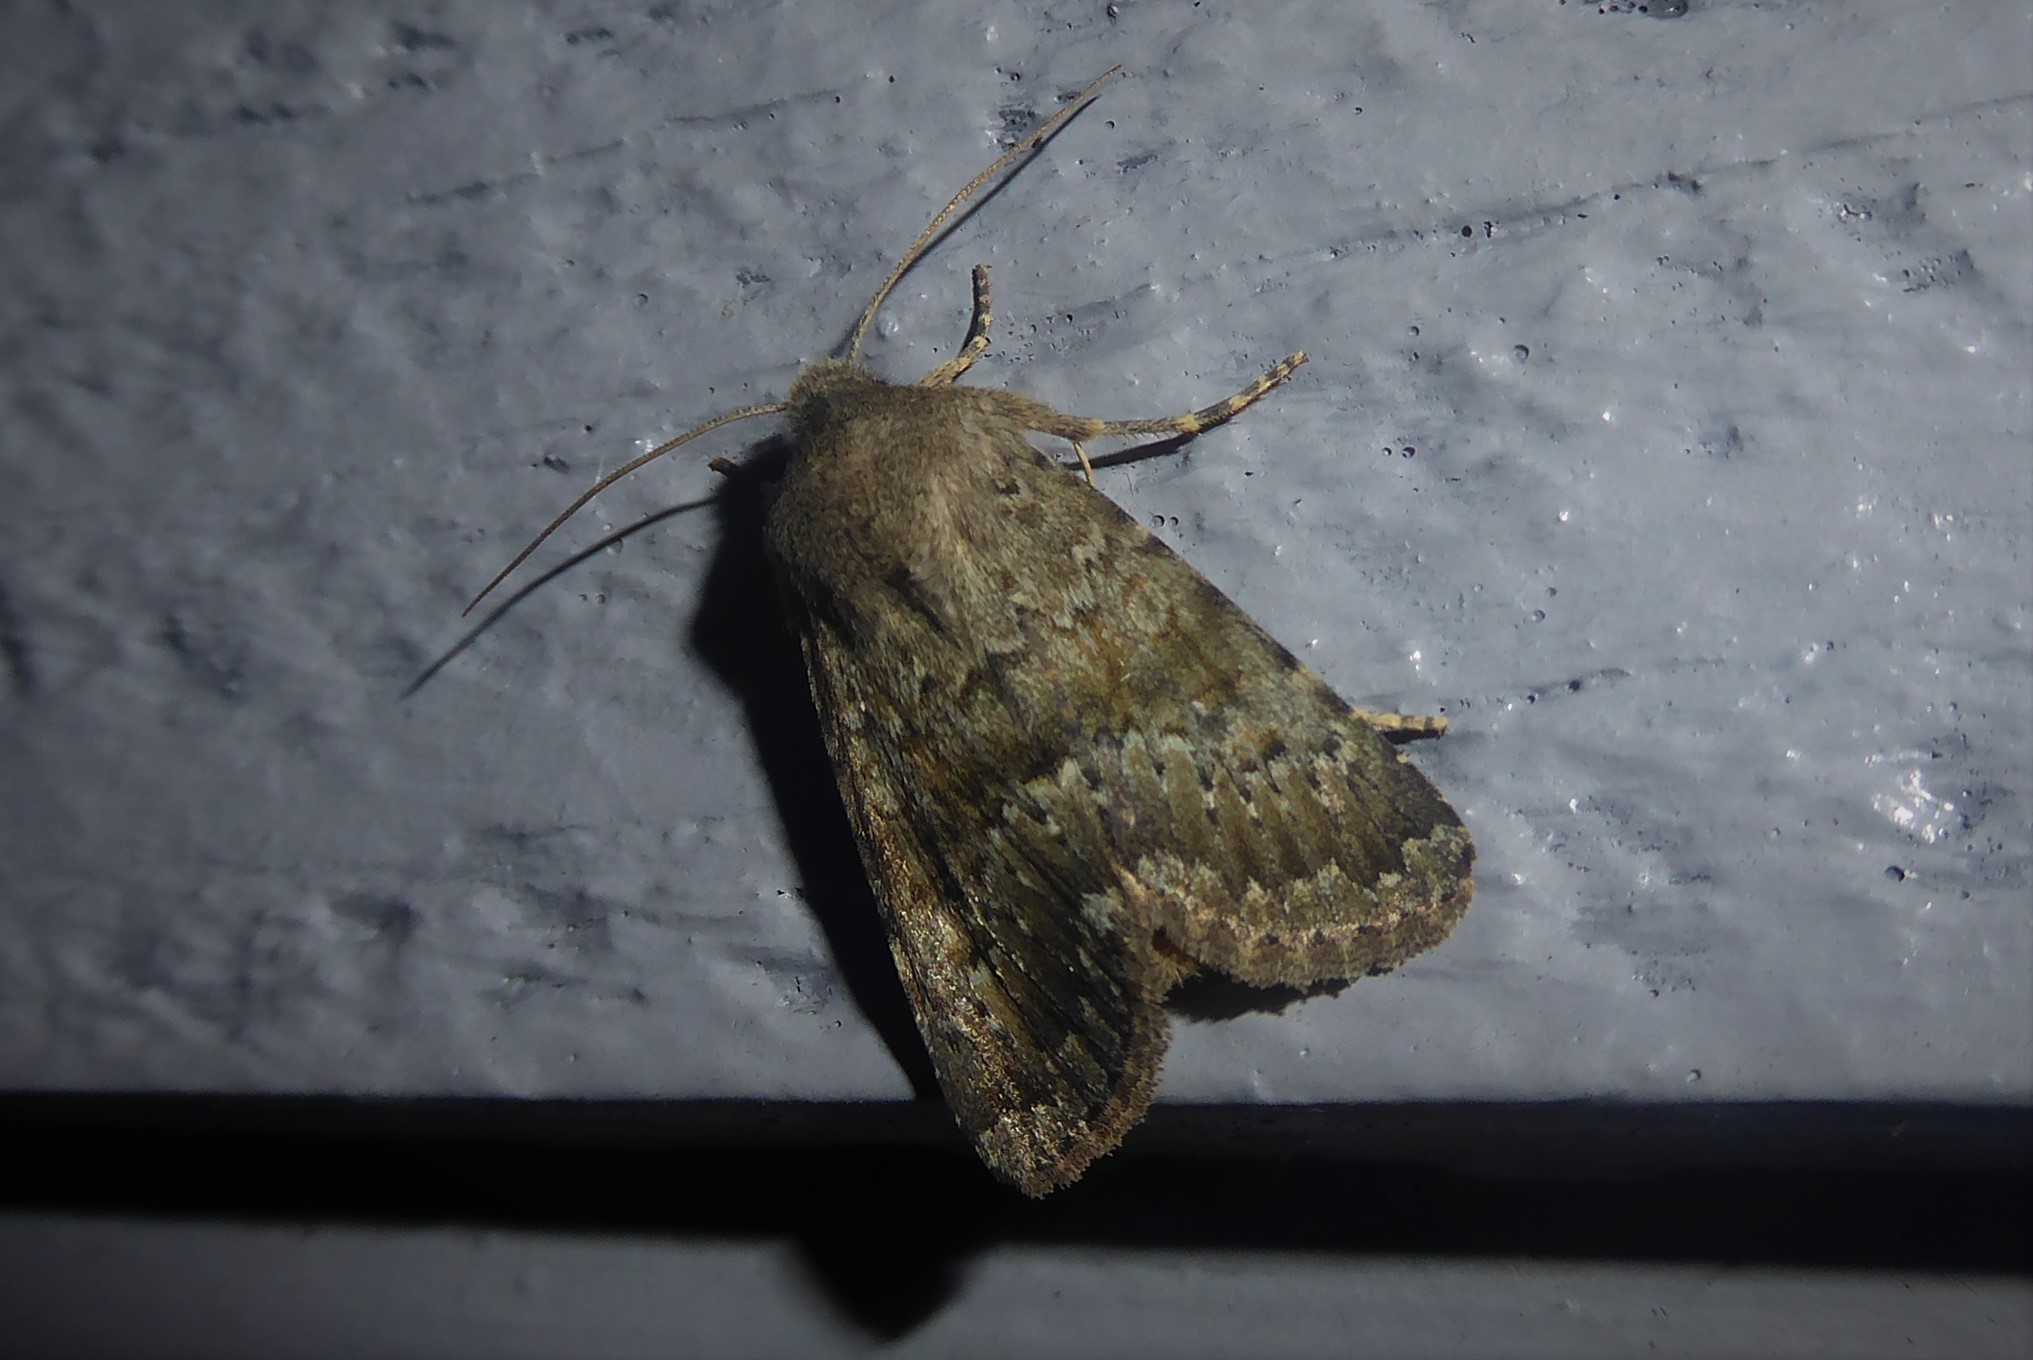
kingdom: Animalia
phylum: Arthropoda
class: Insecta
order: Lepidoptera
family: Noctuidae
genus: Ichneutica
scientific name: Ichneutica moderata
